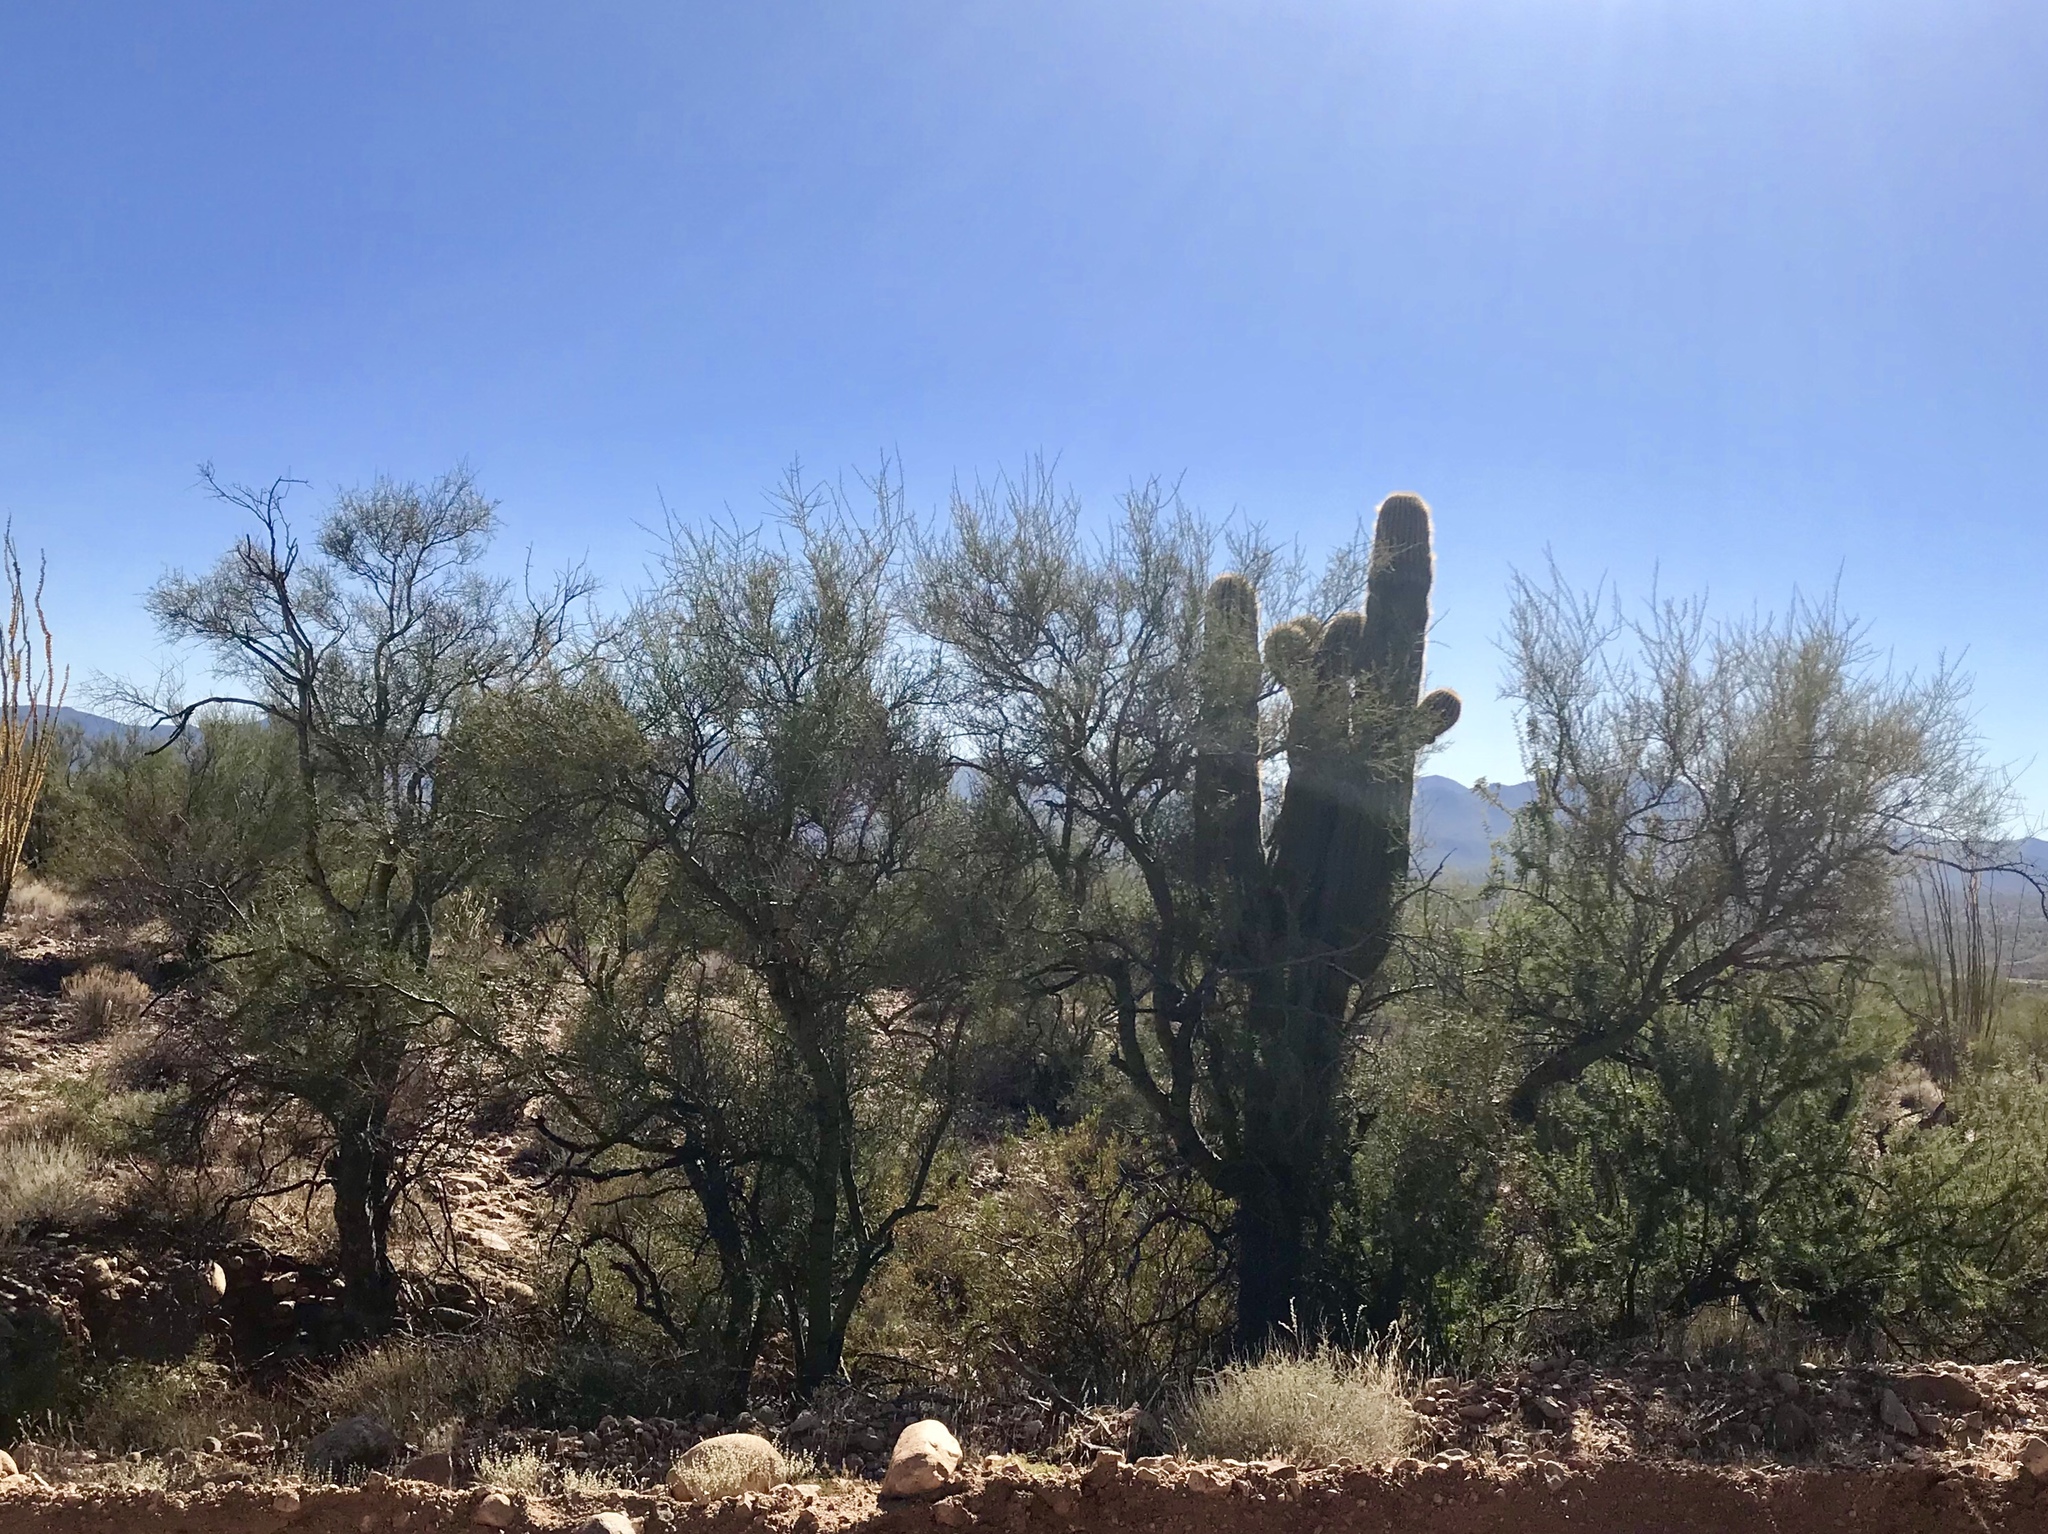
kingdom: Plantae
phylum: Tracheophyta
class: Magnoliopsida
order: Fabales
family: Fabaceae
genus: Parkinsonia
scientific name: Parkinsonia microphylla
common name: Yellow paloverde
